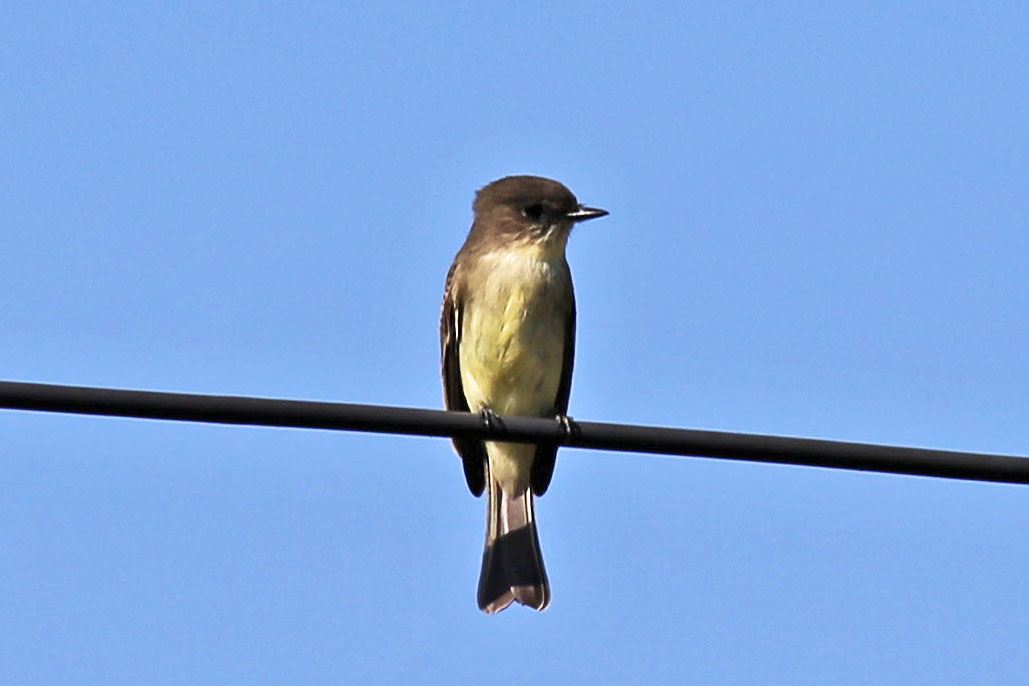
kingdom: Animalia
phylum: Chordata
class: Aves
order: Passeriformes
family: Tyrannidae
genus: Sayornis
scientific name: Sayornis phoebe
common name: Eastern phoebe
